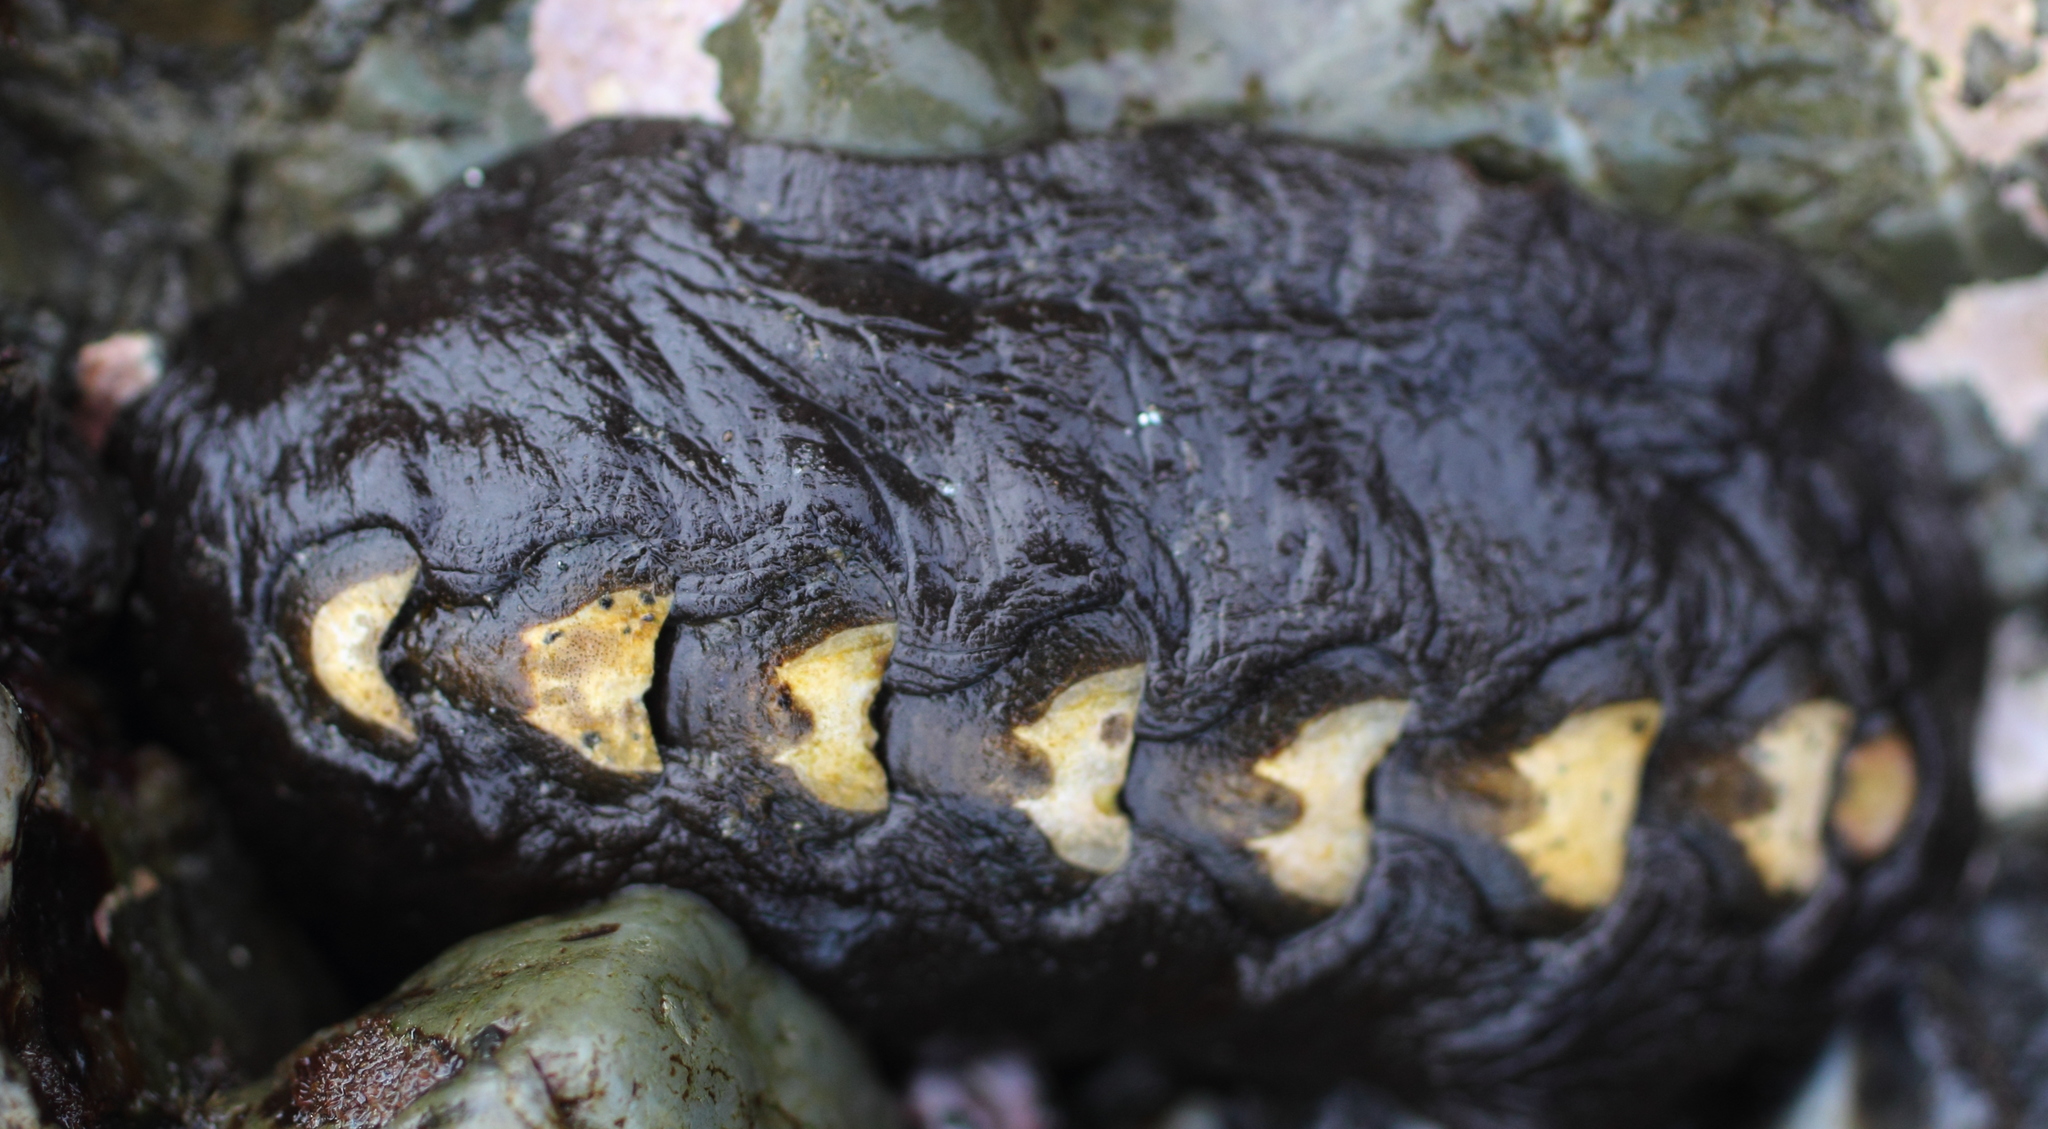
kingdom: Animalia
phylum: Mollusca
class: Polyplacophora
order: Chitonida
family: Mopaliidae
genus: Katharina
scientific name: Katharina tunicata
